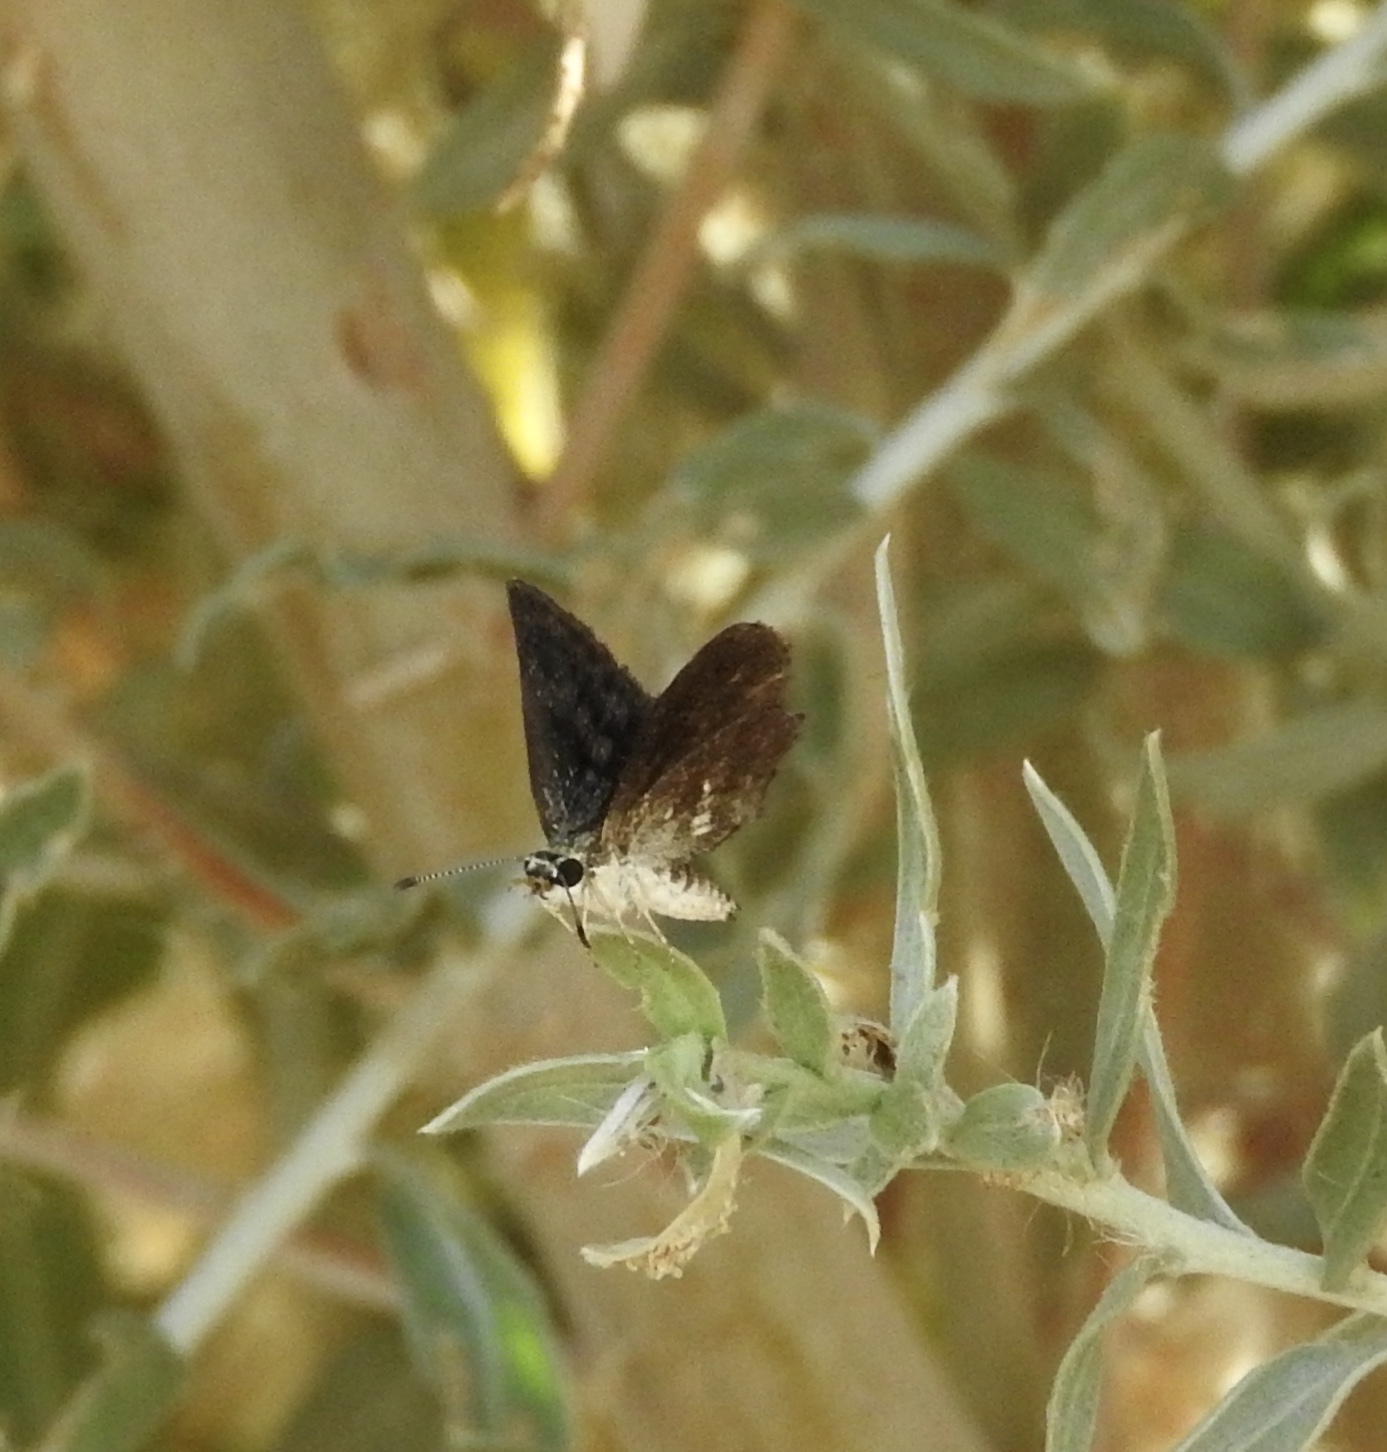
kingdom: Animalia
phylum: Arthropoda
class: Insecta
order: Lepidoptera
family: Hesperiidae
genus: Pholisora
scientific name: Pholisora gracielae
